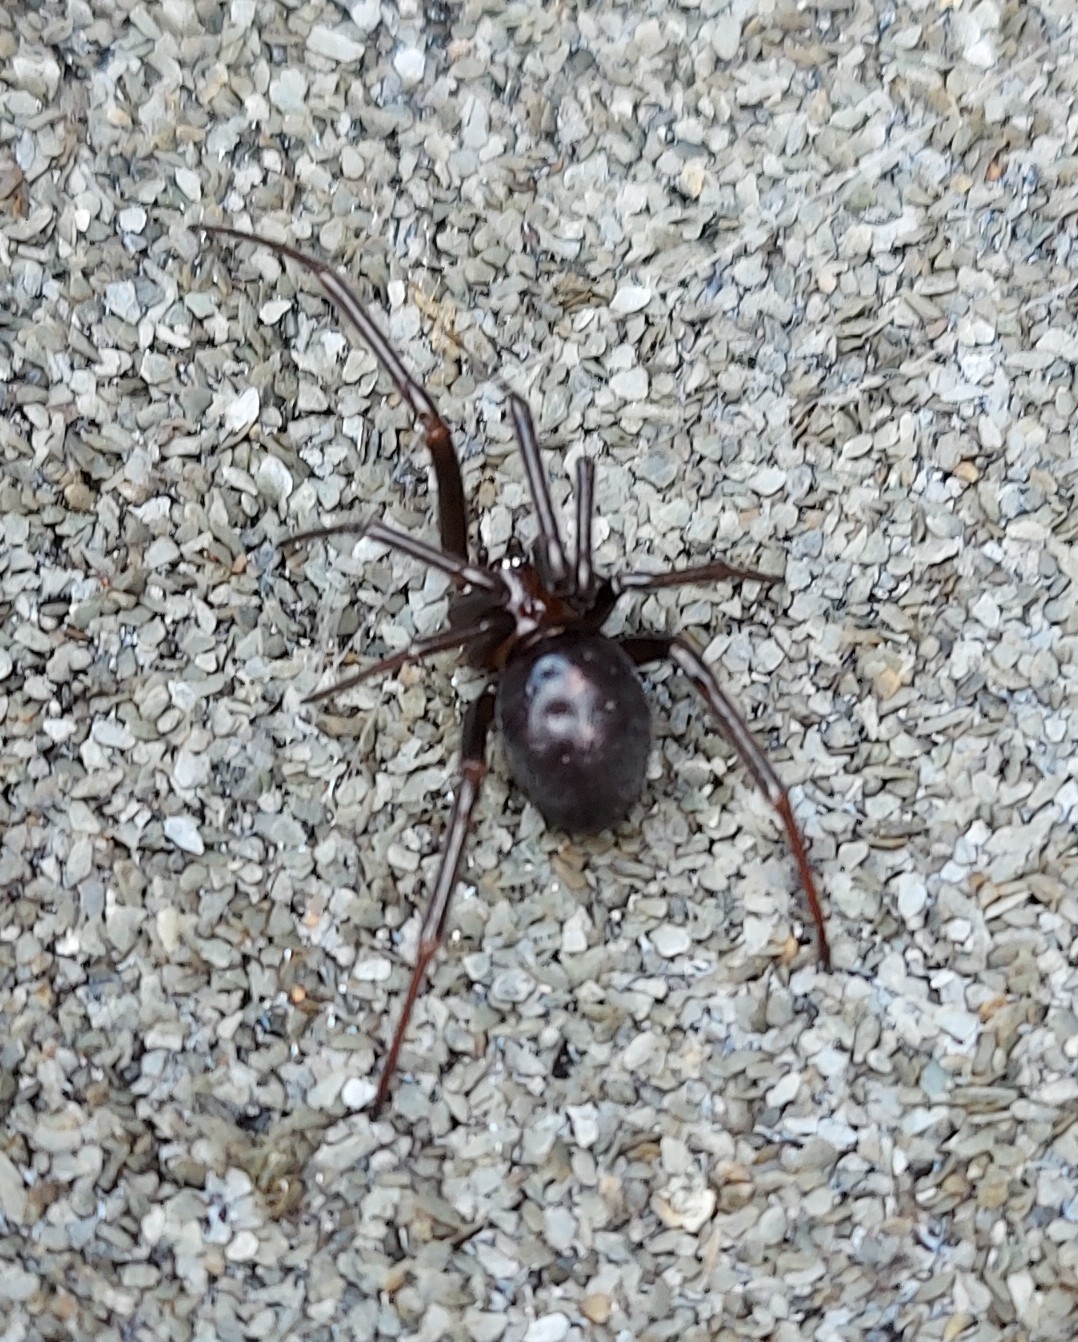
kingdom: Animalia
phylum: Arthropoda
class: Arachnida
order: Araneae
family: Theridiidae
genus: Steatoda
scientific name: Steatoda grossa
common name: False black widow
